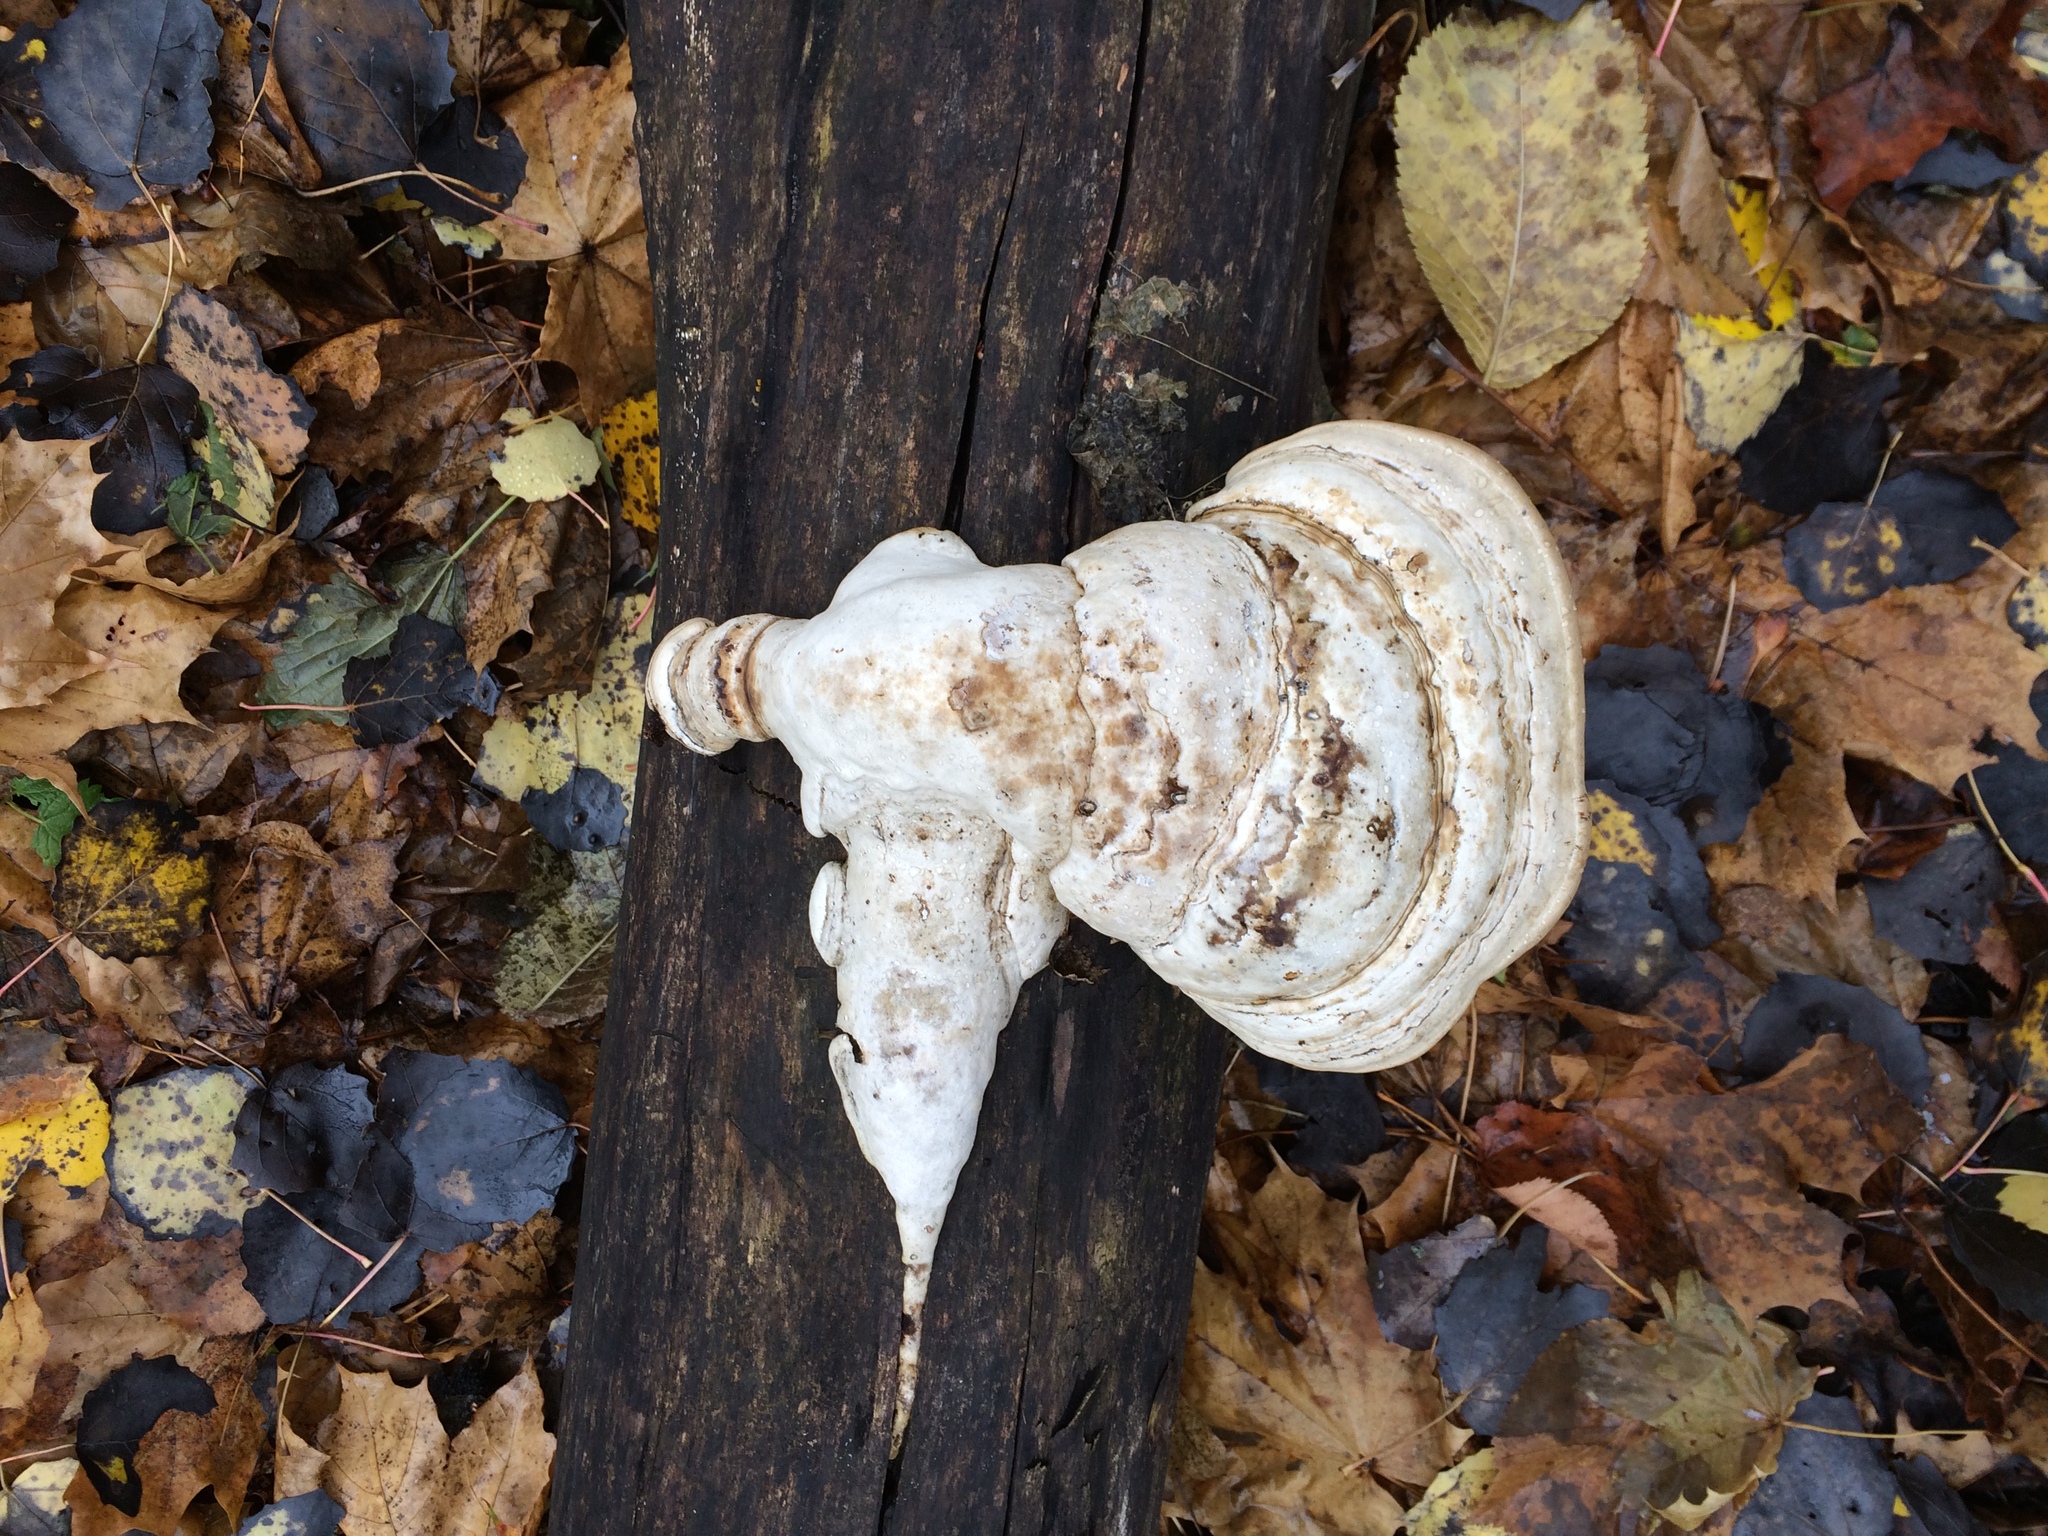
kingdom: Fungi
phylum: Basidiomycota
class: Agaricomycetes
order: Polyporales
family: Polyporaceae
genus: Fomes
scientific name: Fomes fomentarius
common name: Hoof fungus
